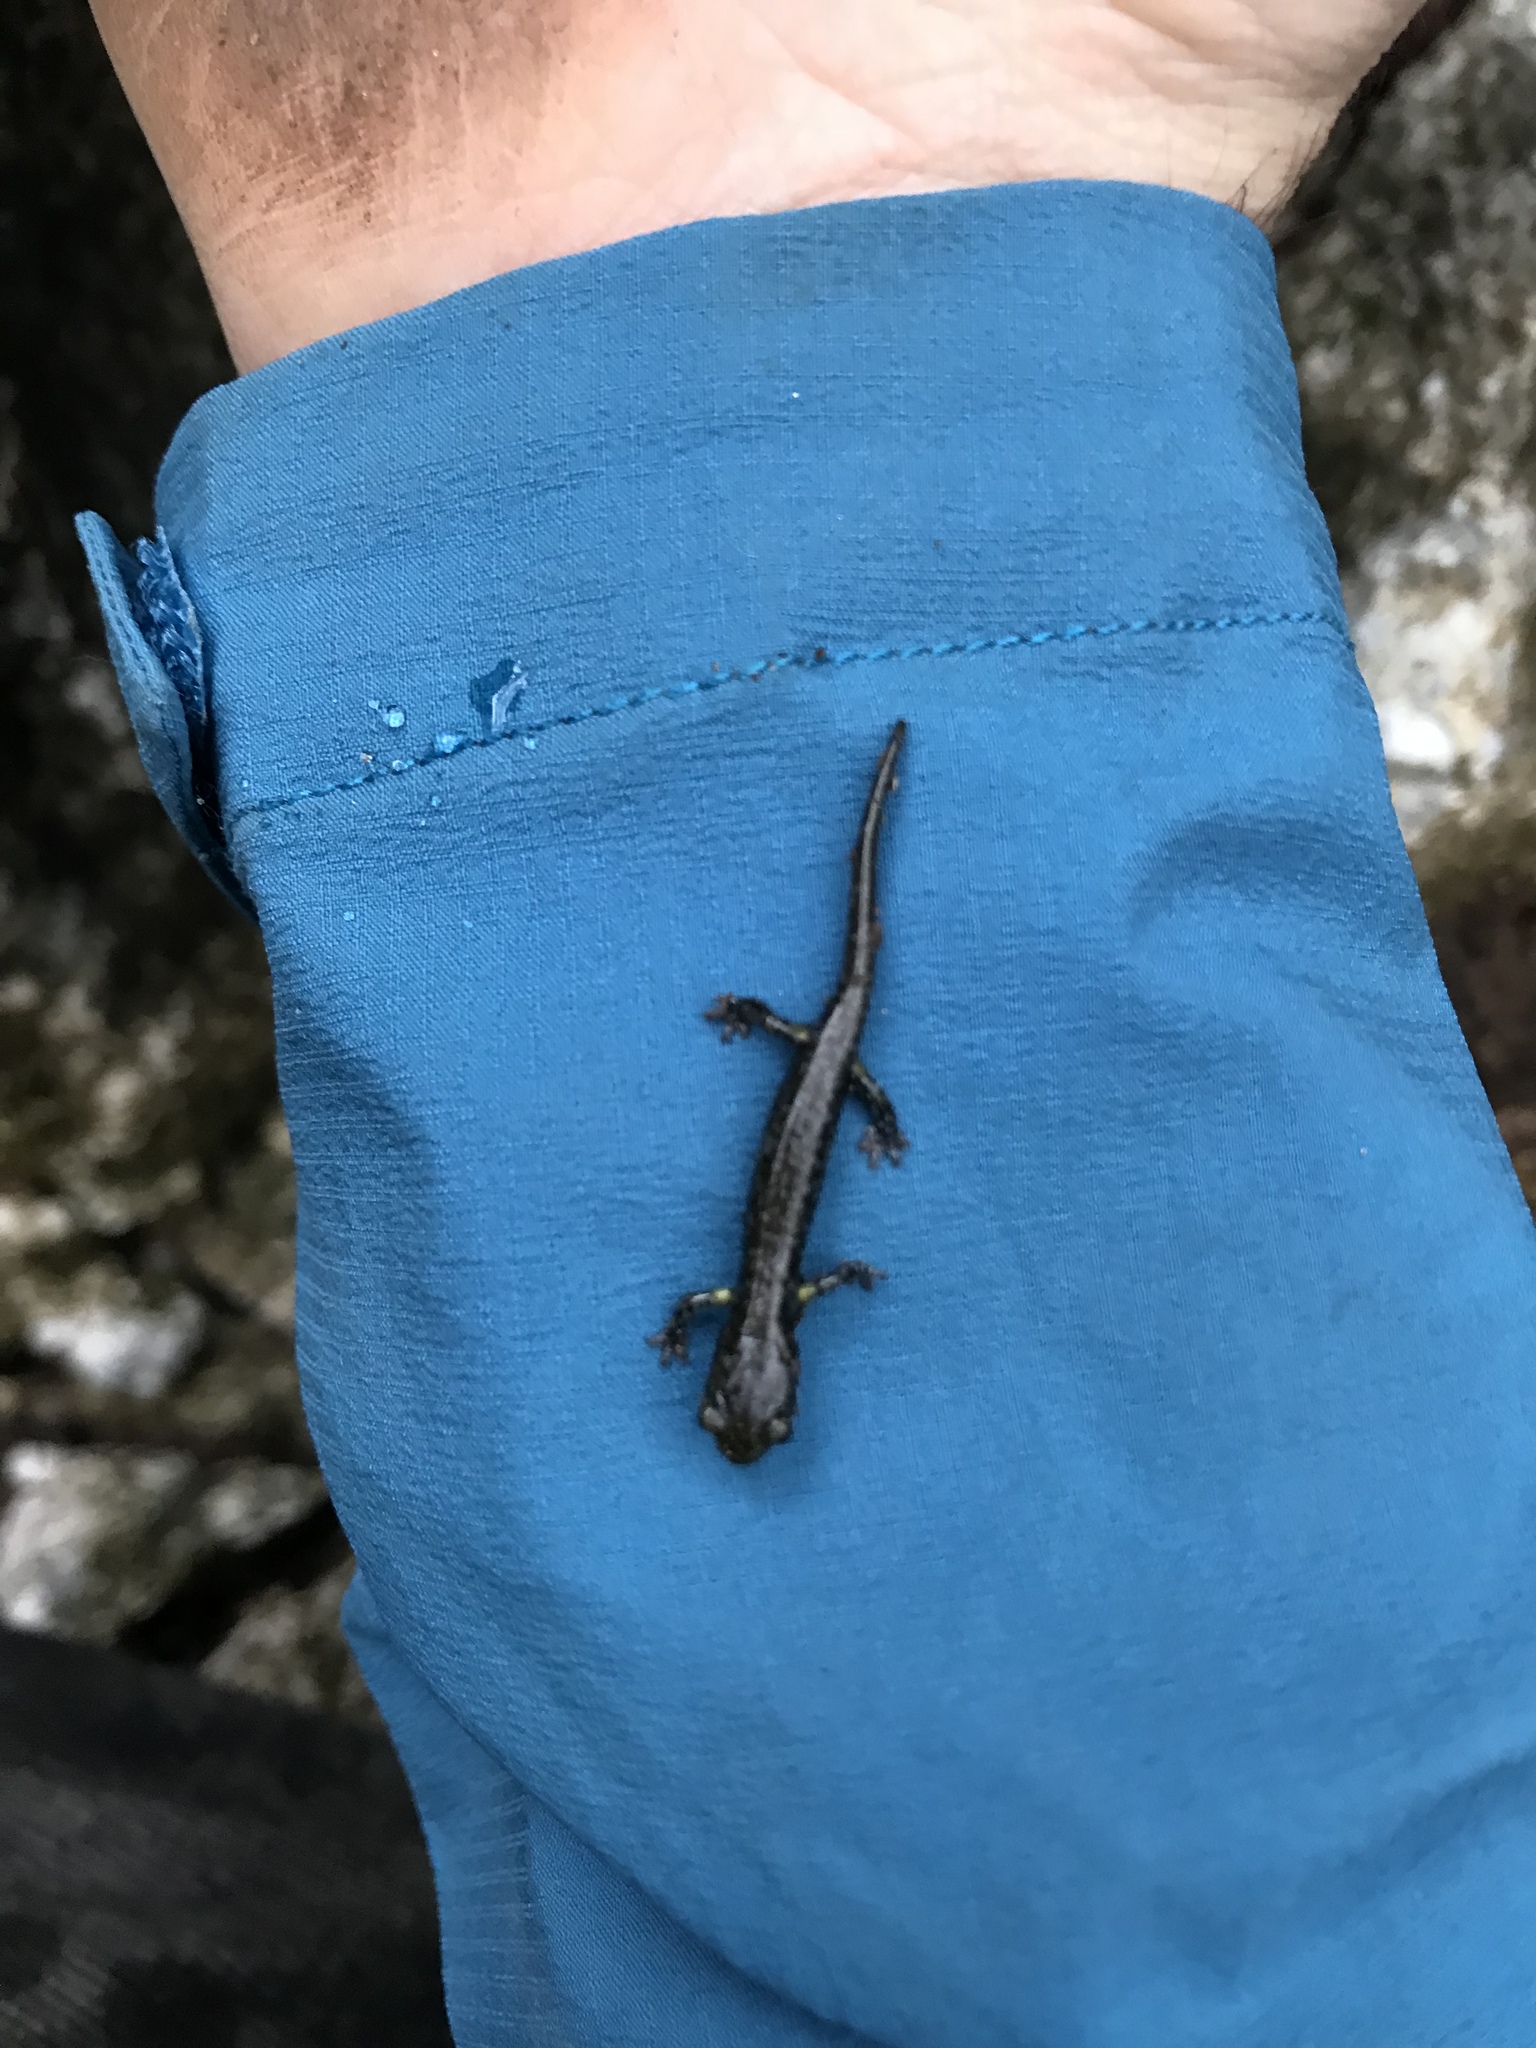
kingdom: Animalia
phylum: Chordata
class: Amphibia
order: Caudata
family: Plethodontidae
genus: Aneides
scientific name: Aneides niger
